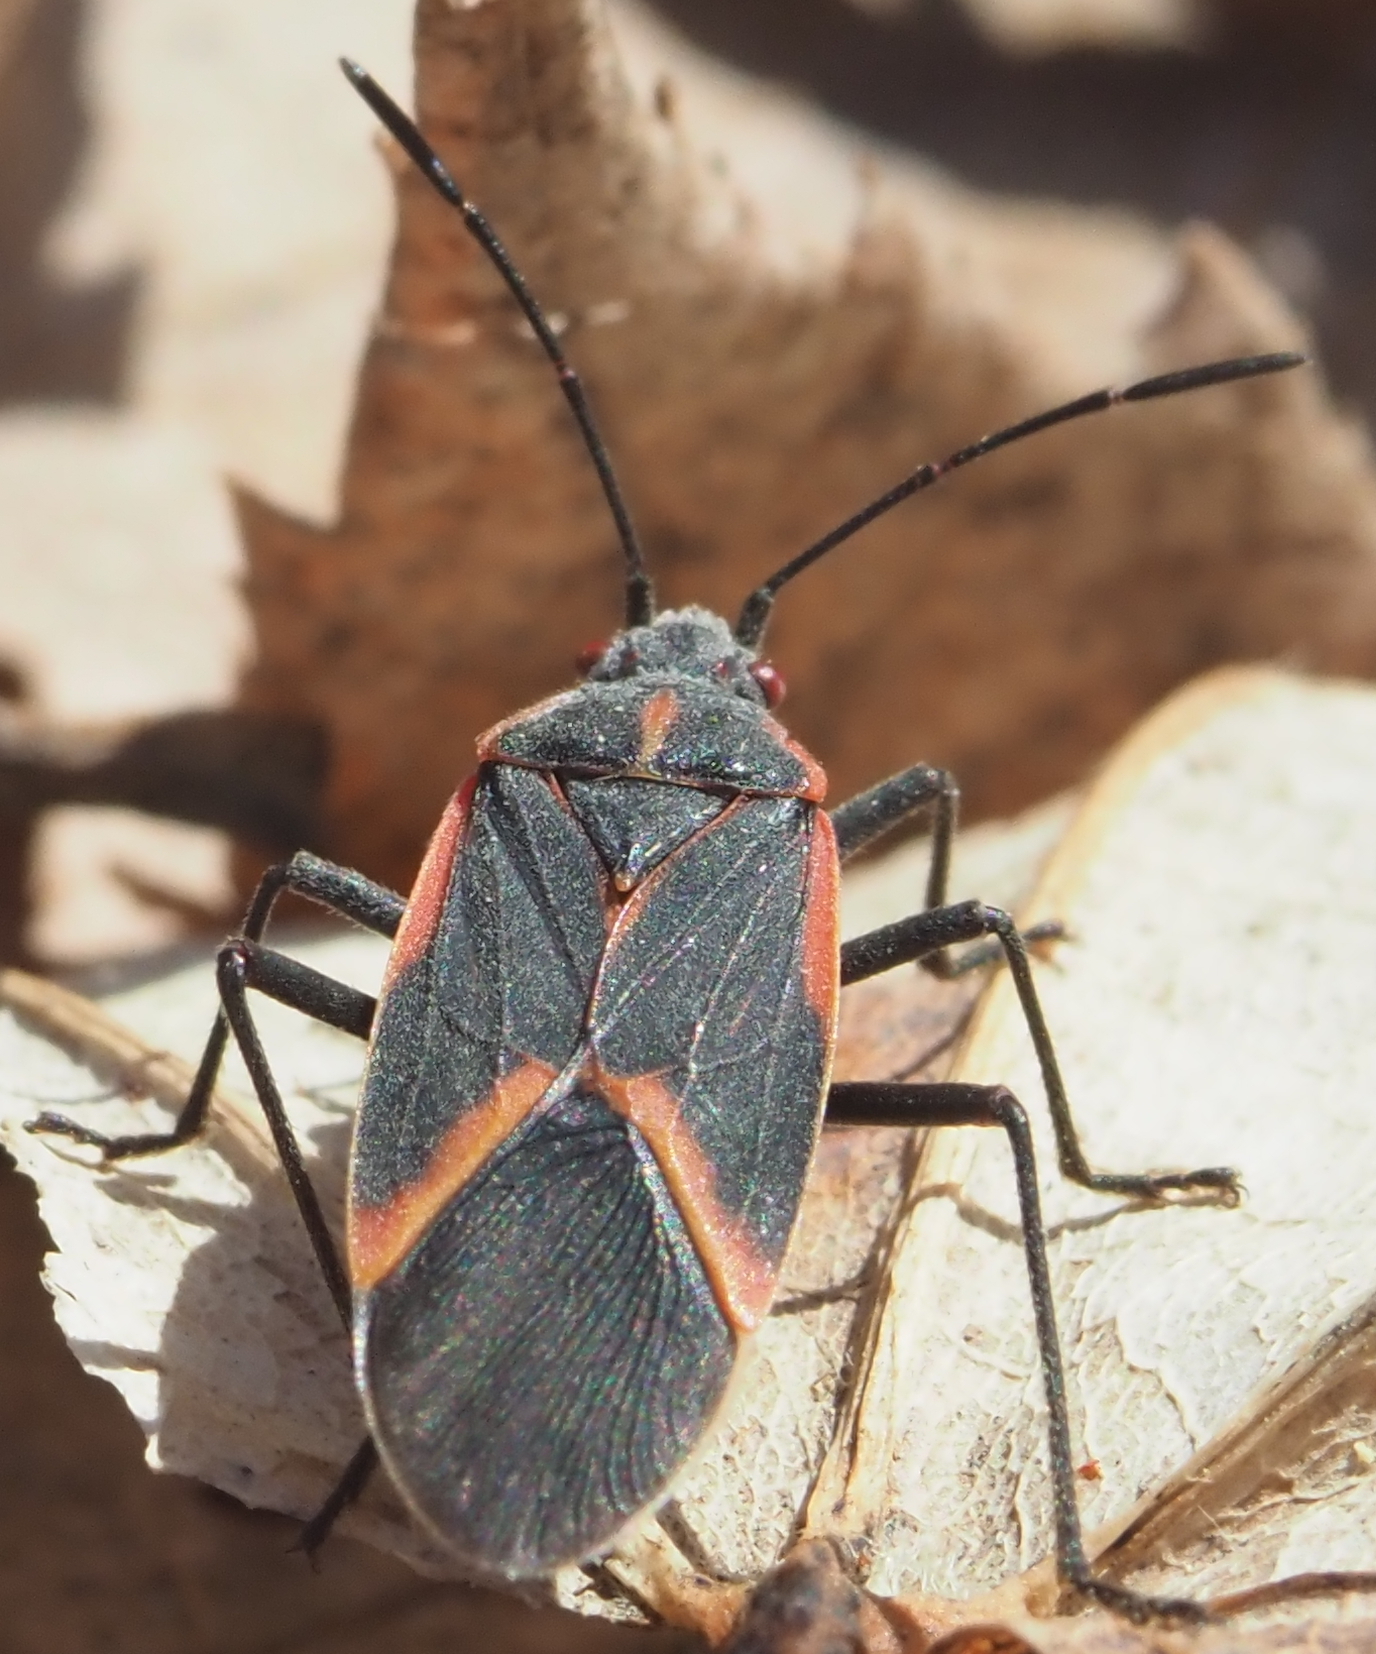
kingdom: Animalia
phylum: Arthropoda
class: Insecta
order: Hemiptera
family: Rhopalidae
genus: Boisea
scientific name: Boisea trivittata
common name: Boxelder bug
